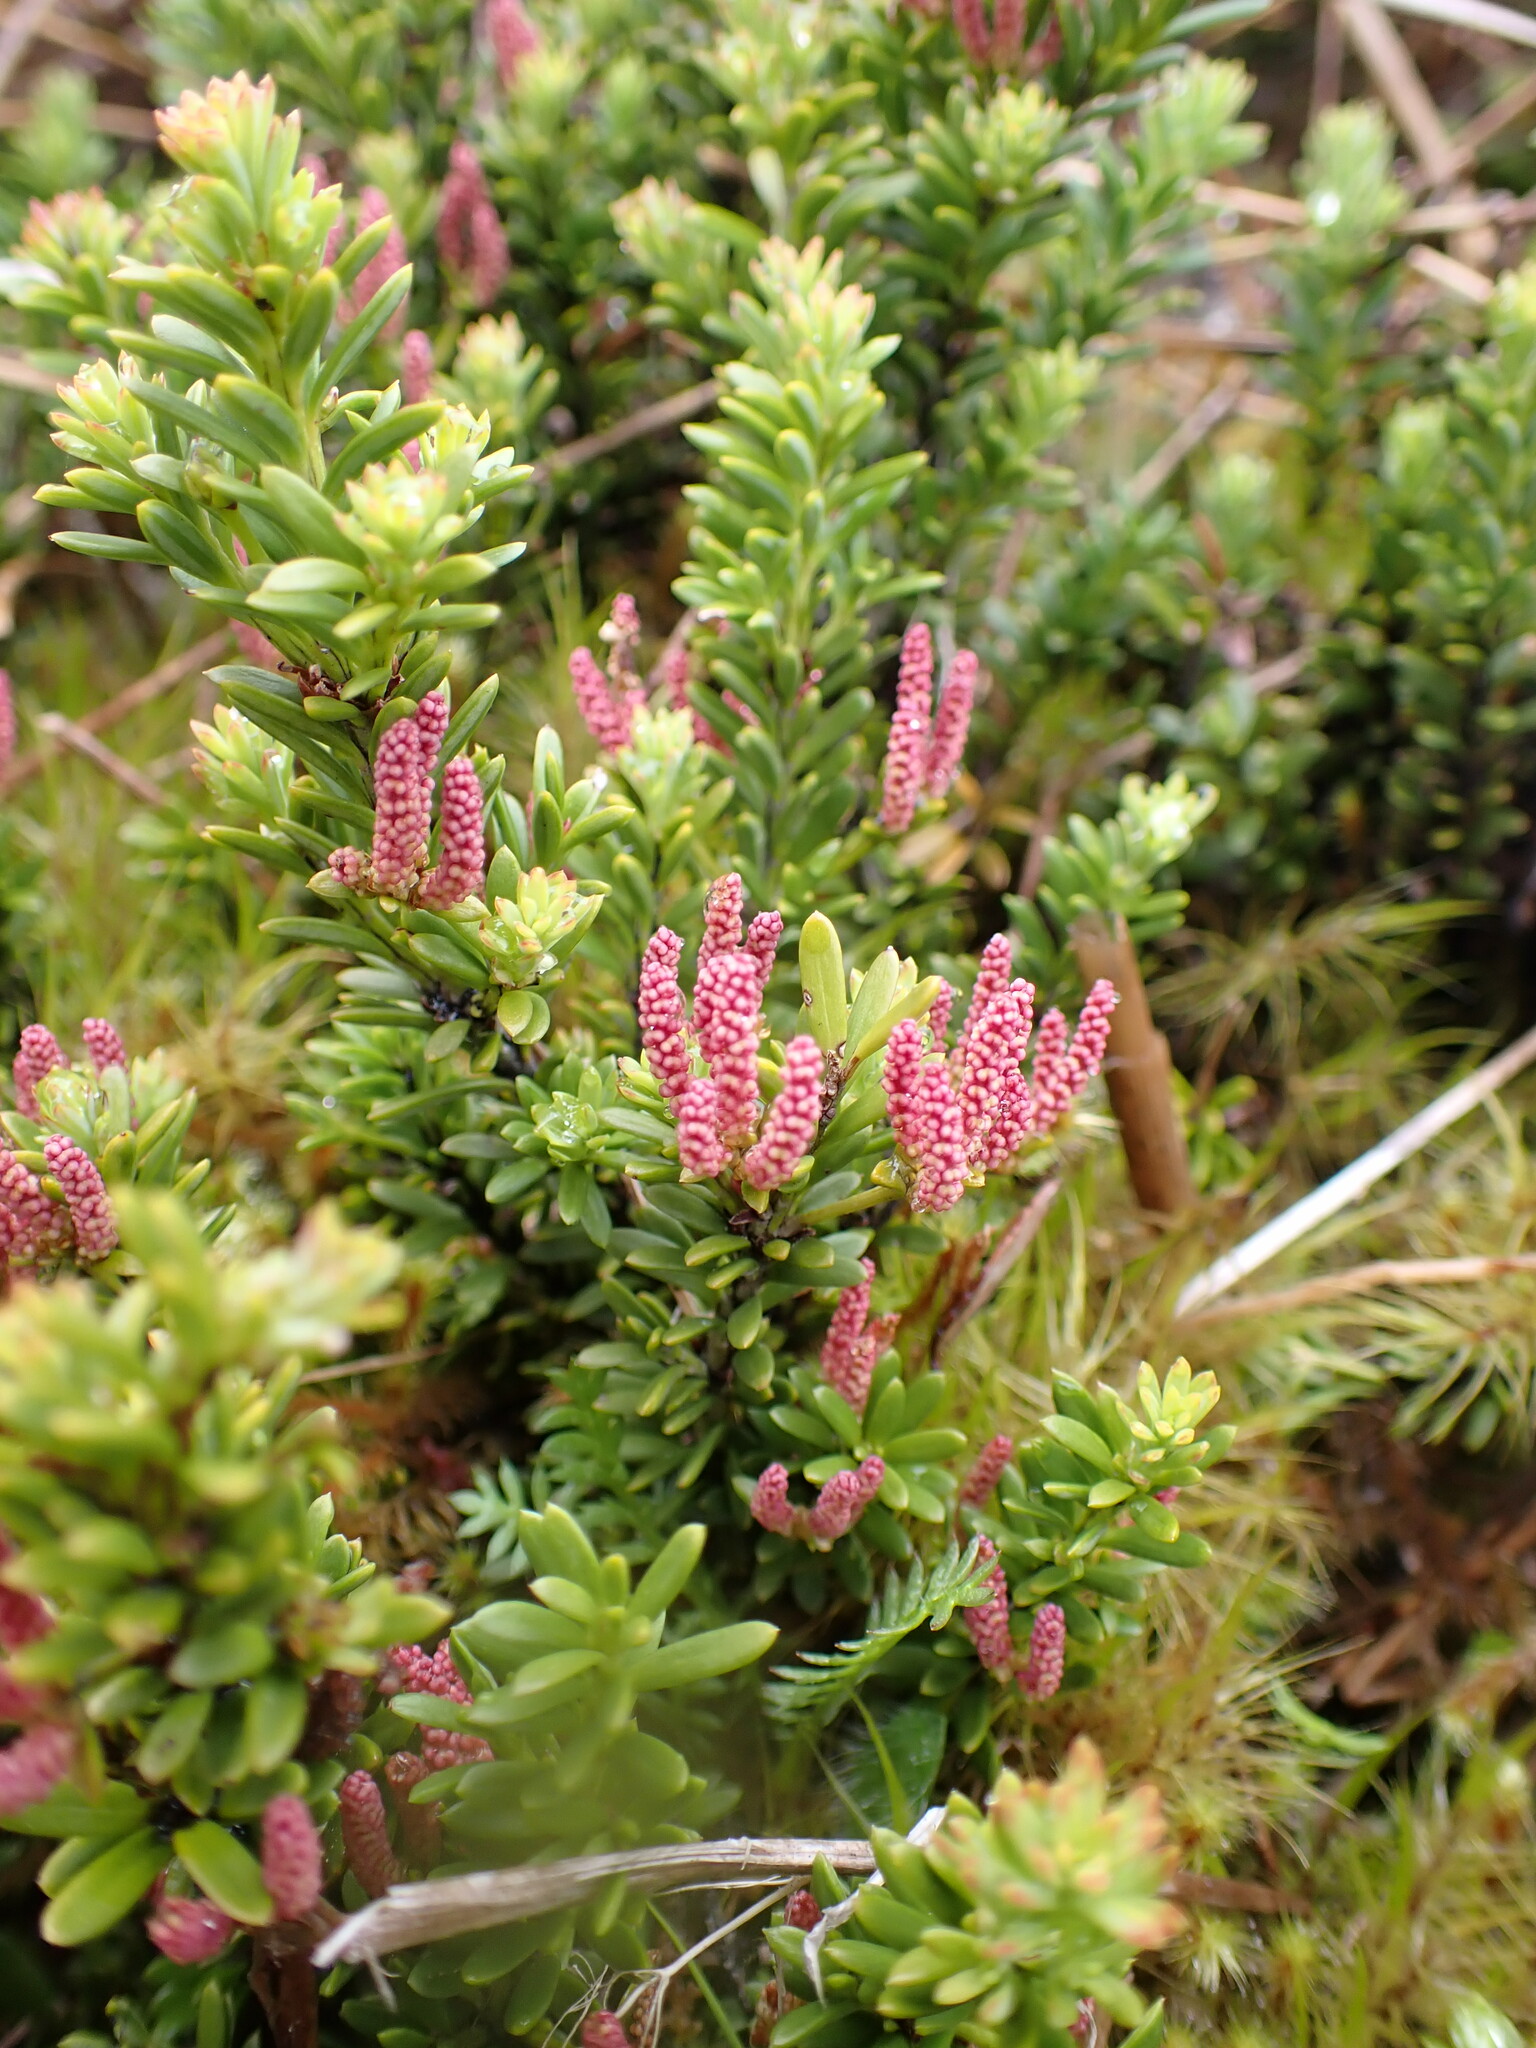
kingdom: Plantae
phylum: Tracheophyta
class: Pinopsida
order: Pinales
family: Podocarpaceae
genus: Podocarpus
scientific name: Podocarpus nivalis
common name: Alpine totara
